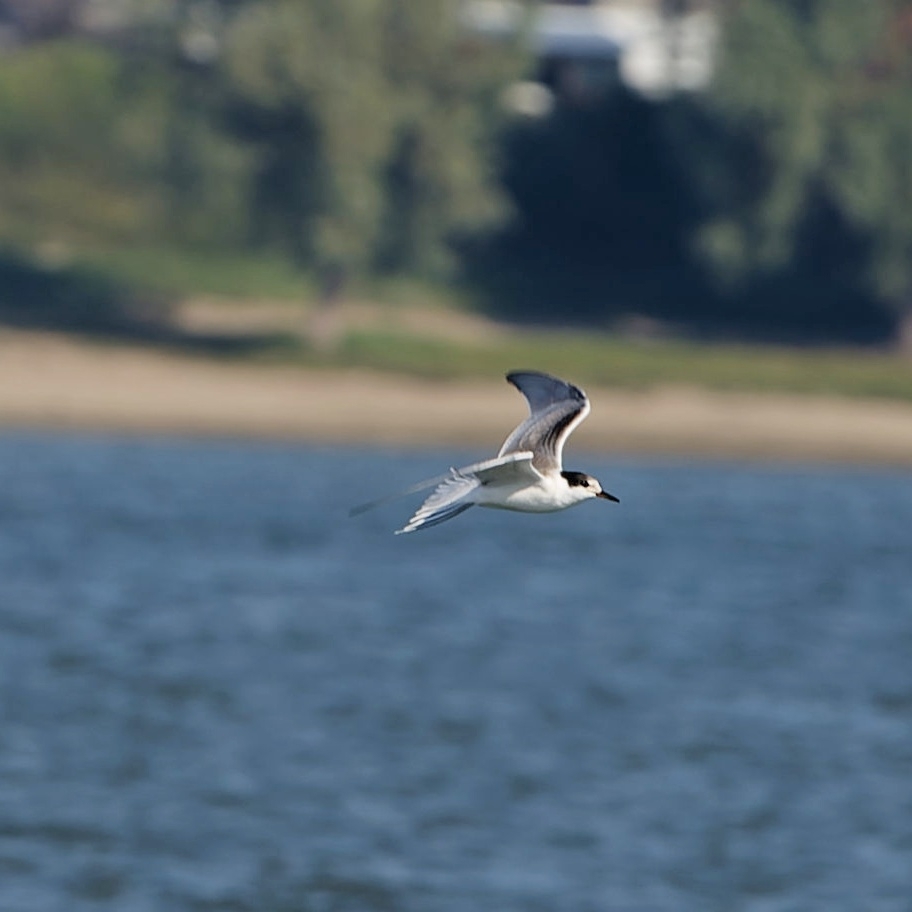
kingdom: Animalia
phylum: Chordata
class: Aves
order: Charadriiformes
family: Laridae
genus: Sterna
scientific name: Sterna hirundo
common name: Common tern
